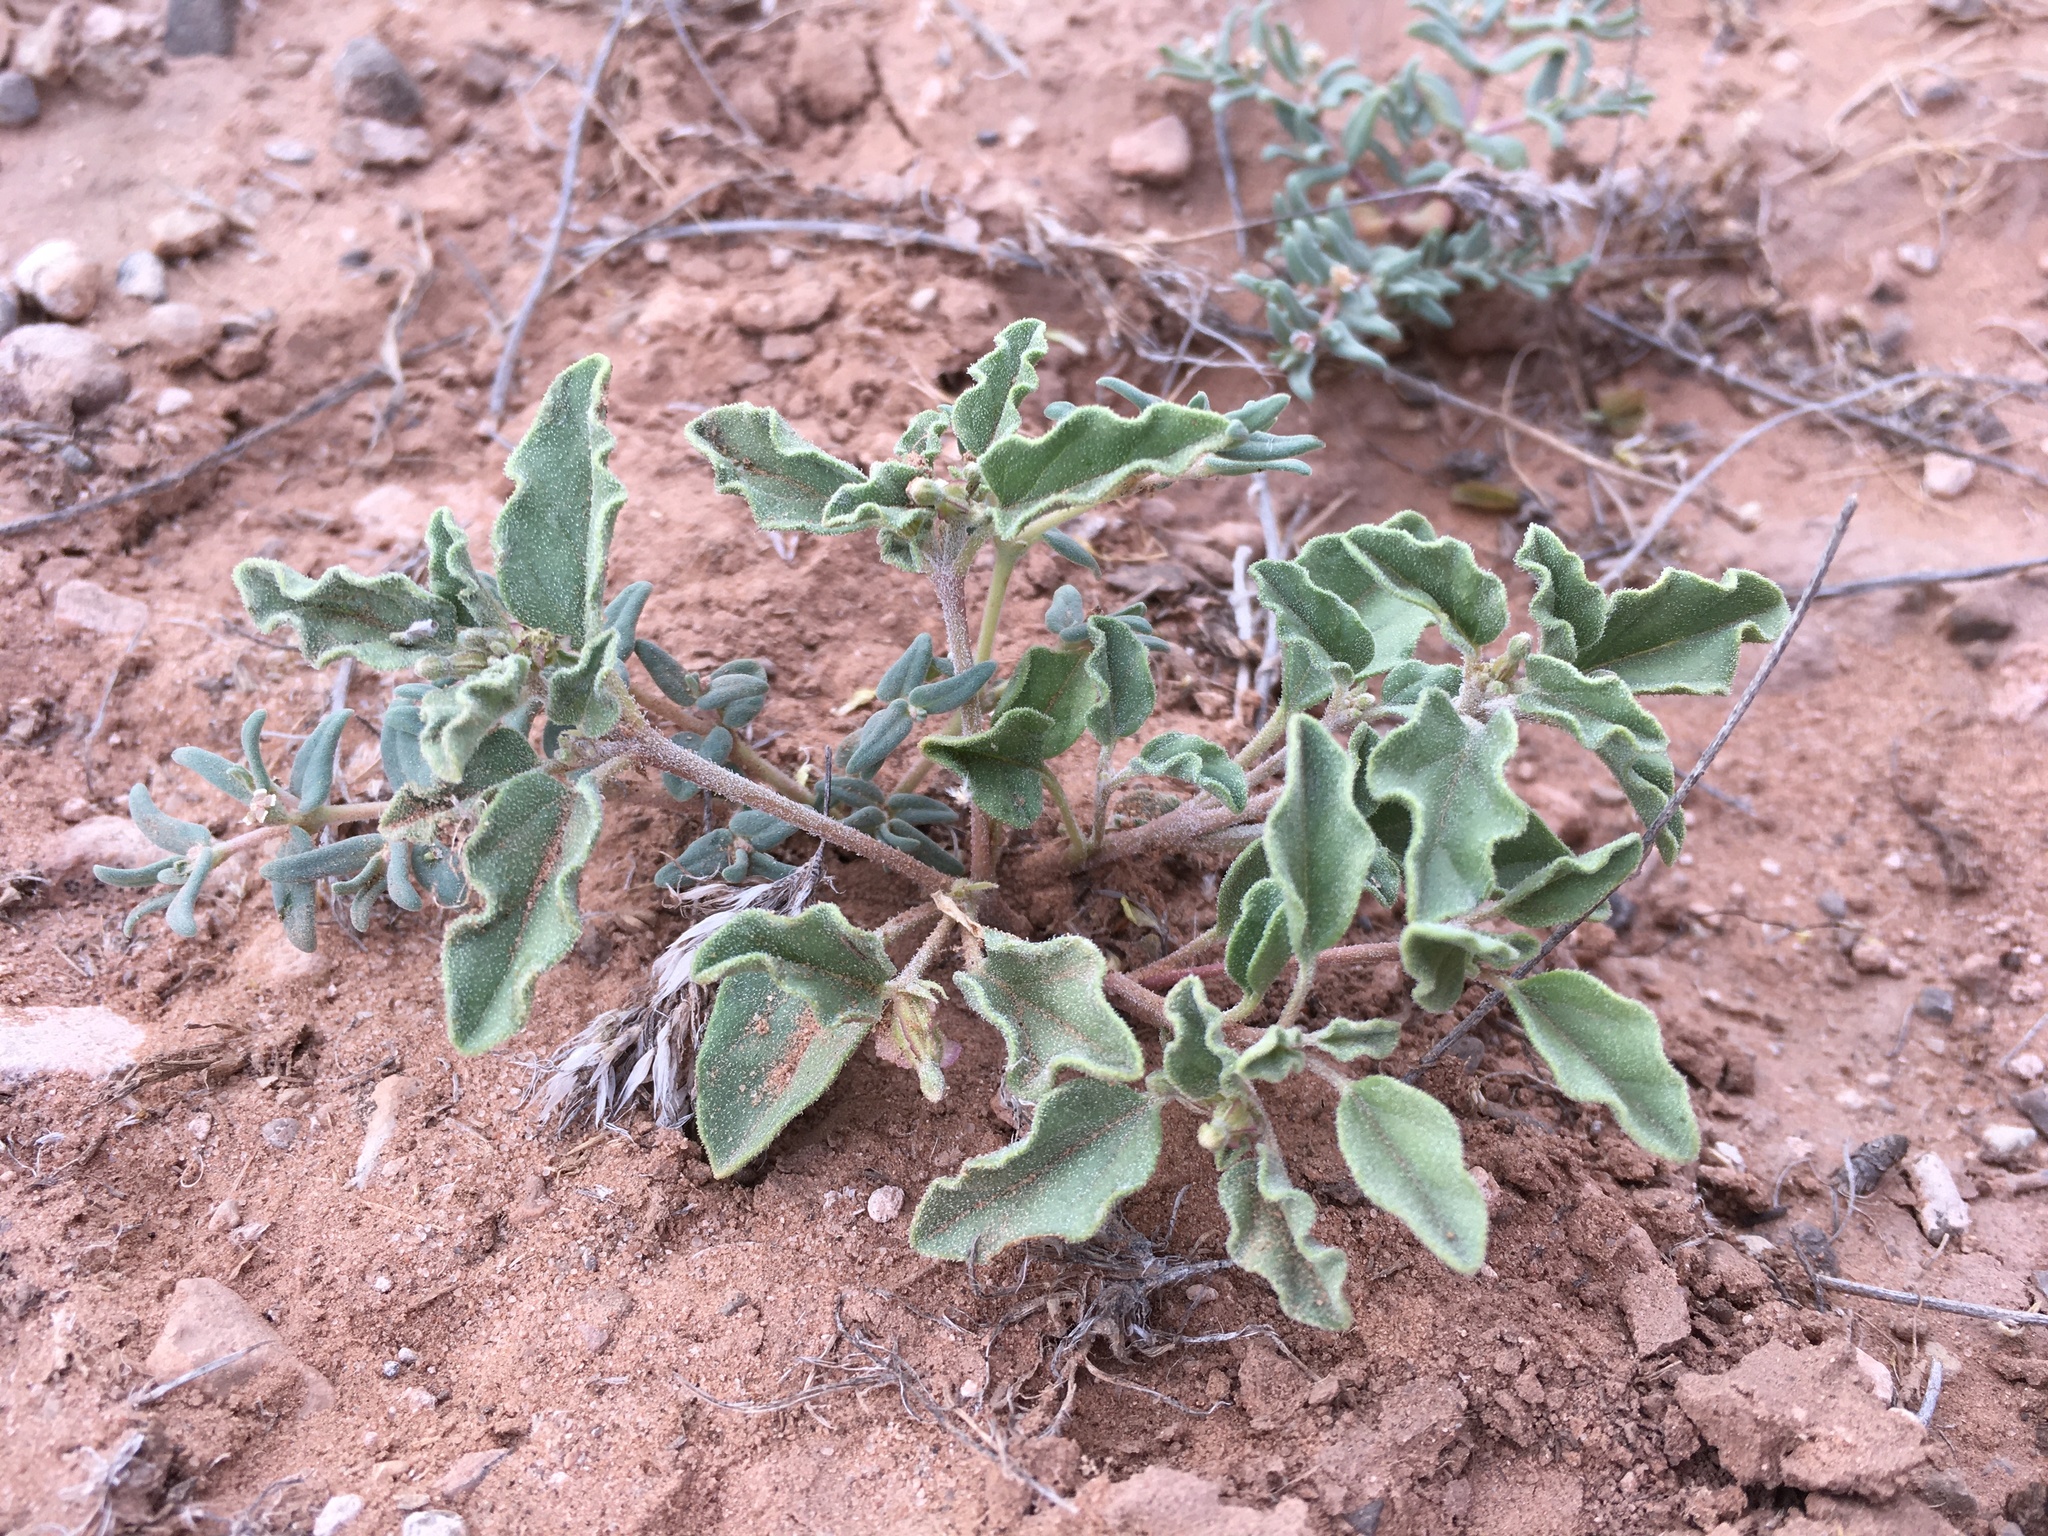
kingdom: Plantae
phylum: Tracheophyta
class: Magnoliopsida
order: Caryophyllales
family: Nyctaginaceae
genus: Acleisanthes
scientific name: Acleisanthes diffusa
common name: Spreading moonpod
